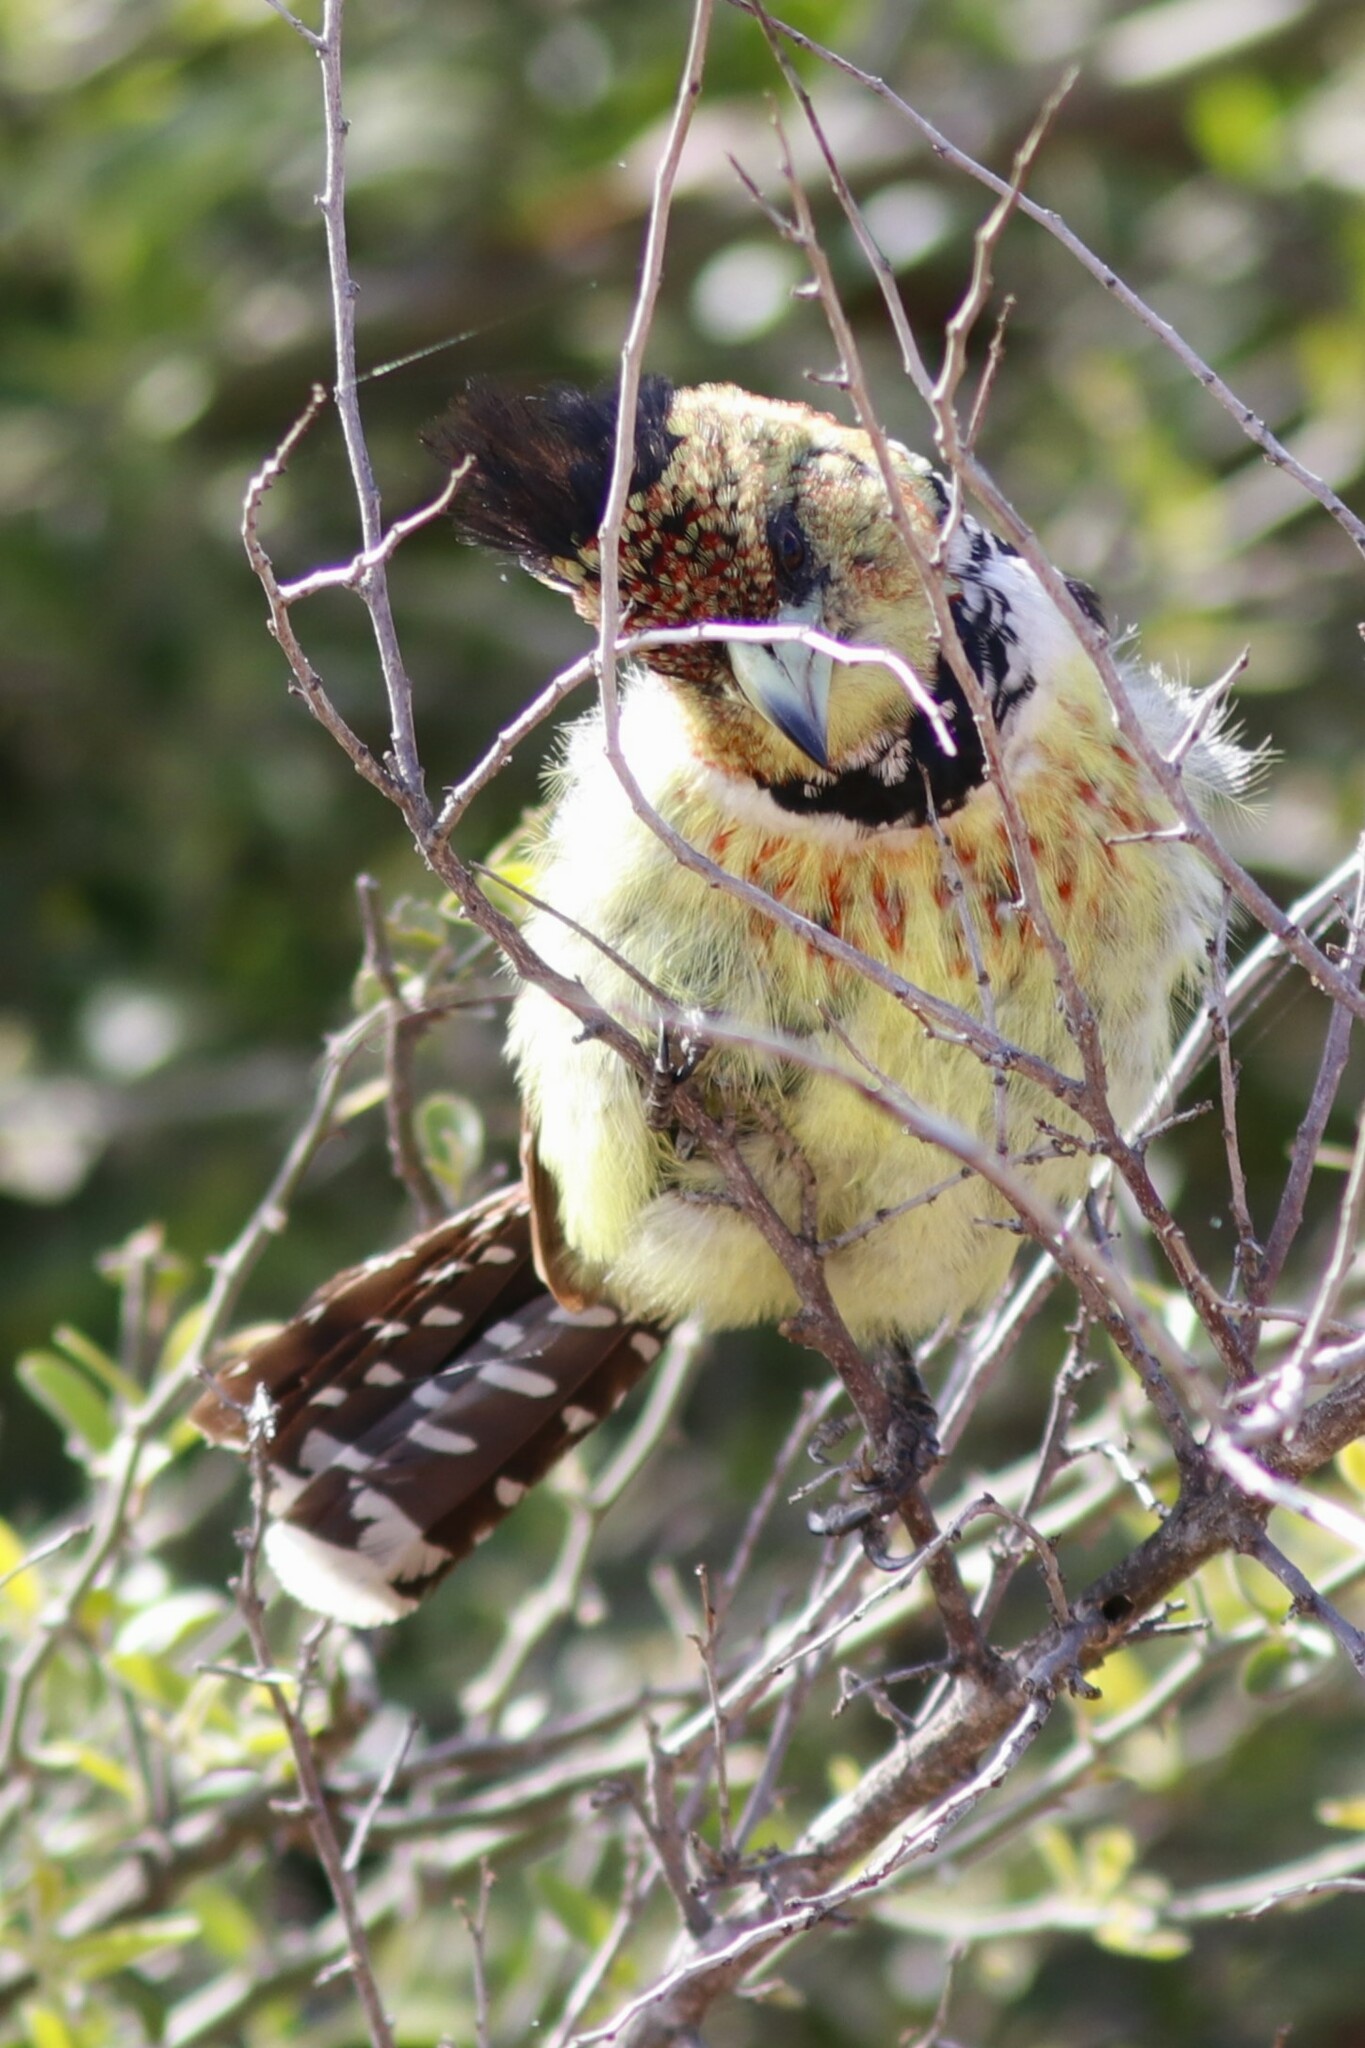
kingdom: Animalia
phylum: Chordata
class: Aves
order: Piciformes
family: Lybiidae
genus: Trachyphonus
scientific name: Trachyphonus vaillantii
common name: Crested barbet
